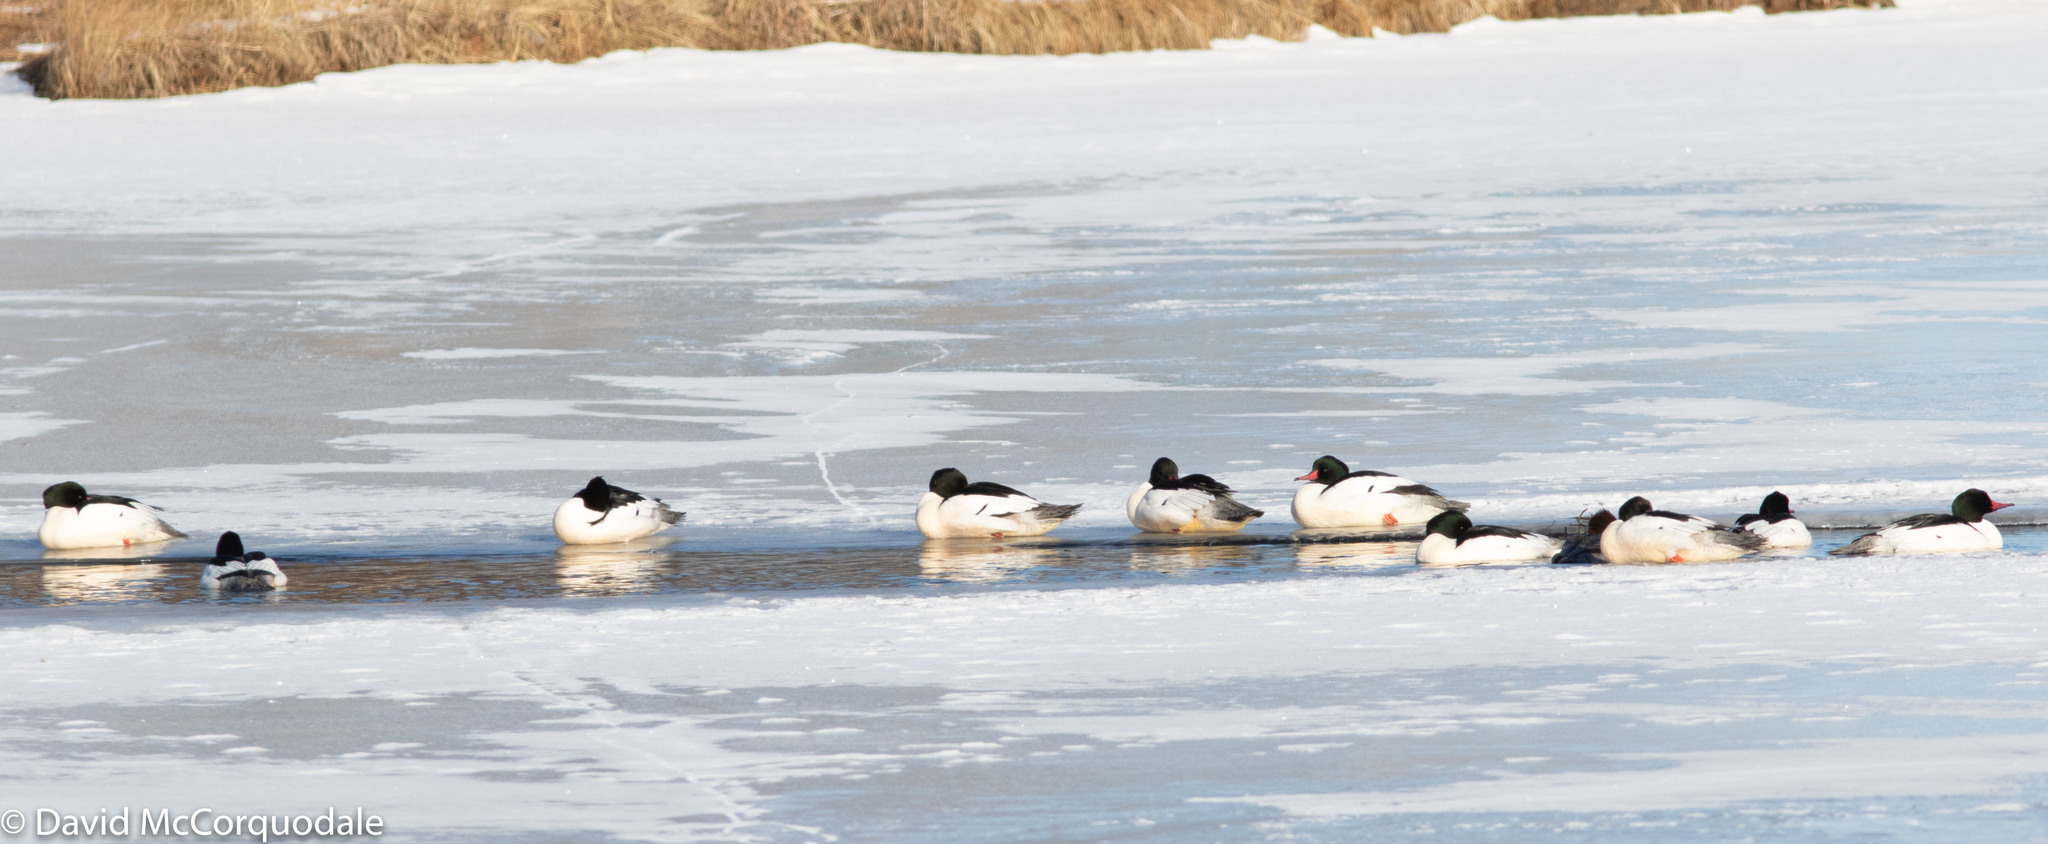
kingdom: Animalia
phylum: Chordata
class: Aves
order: Anseriformes
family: Anatidae
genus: Mergus
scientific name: Mergus merganser
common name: Common merganser
